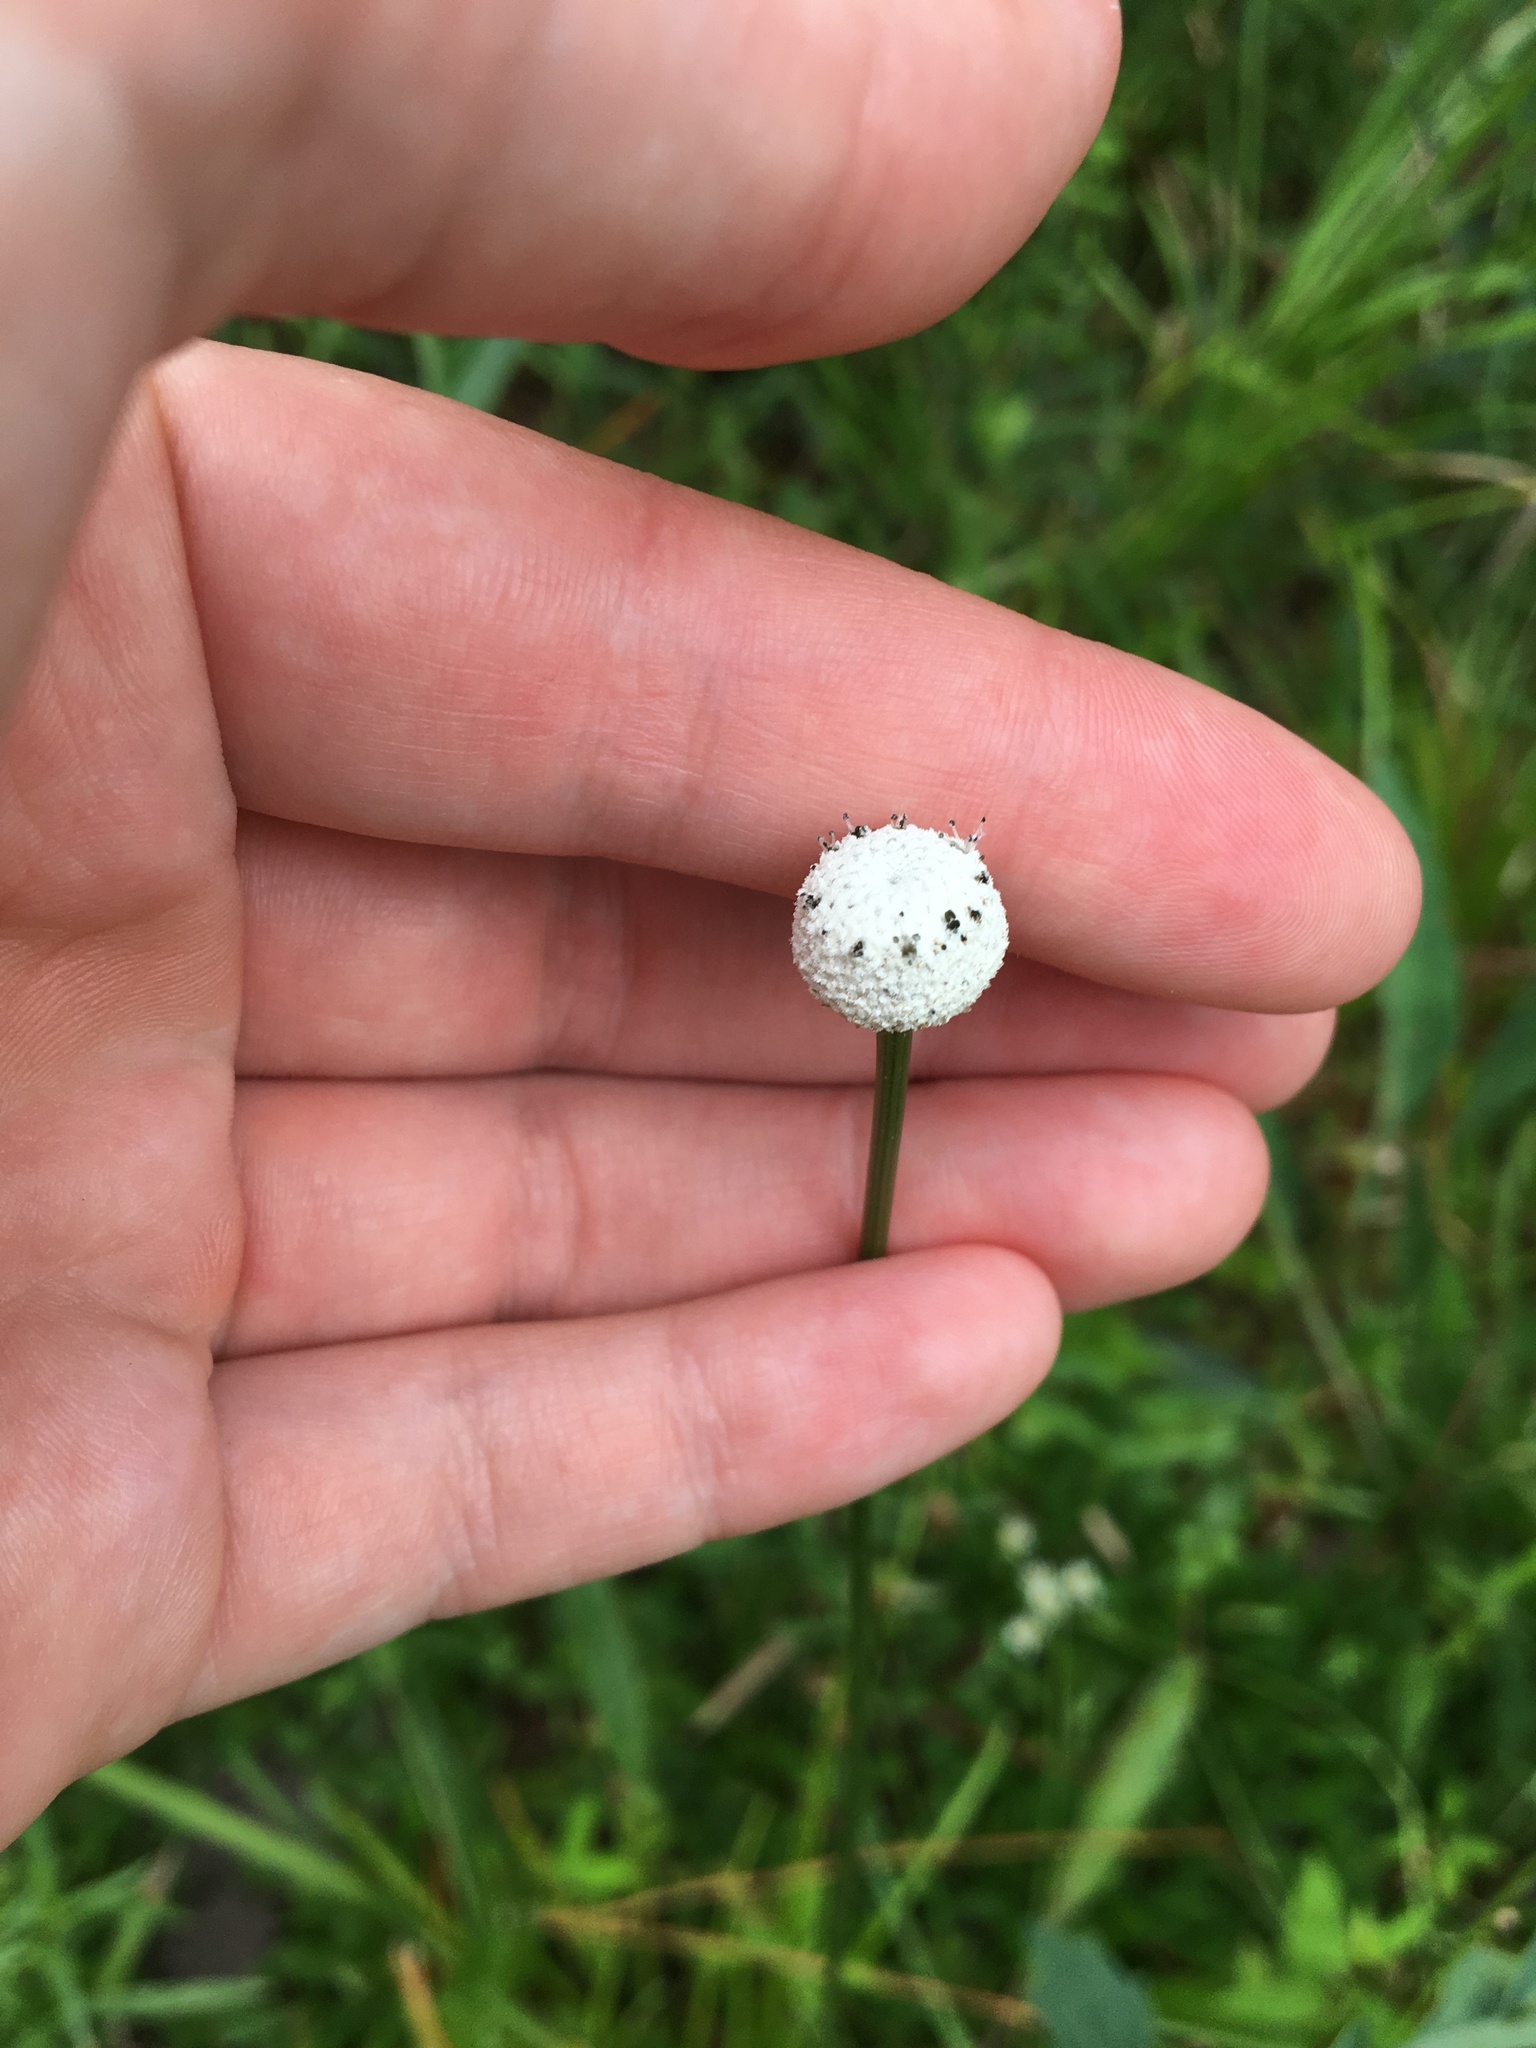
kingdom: Plantae
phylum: Tracheophyta
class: Liliopsida
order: Poales
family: Eriocaulaceae
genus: Eriocaulon
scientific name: Eriocaulon decangulare
